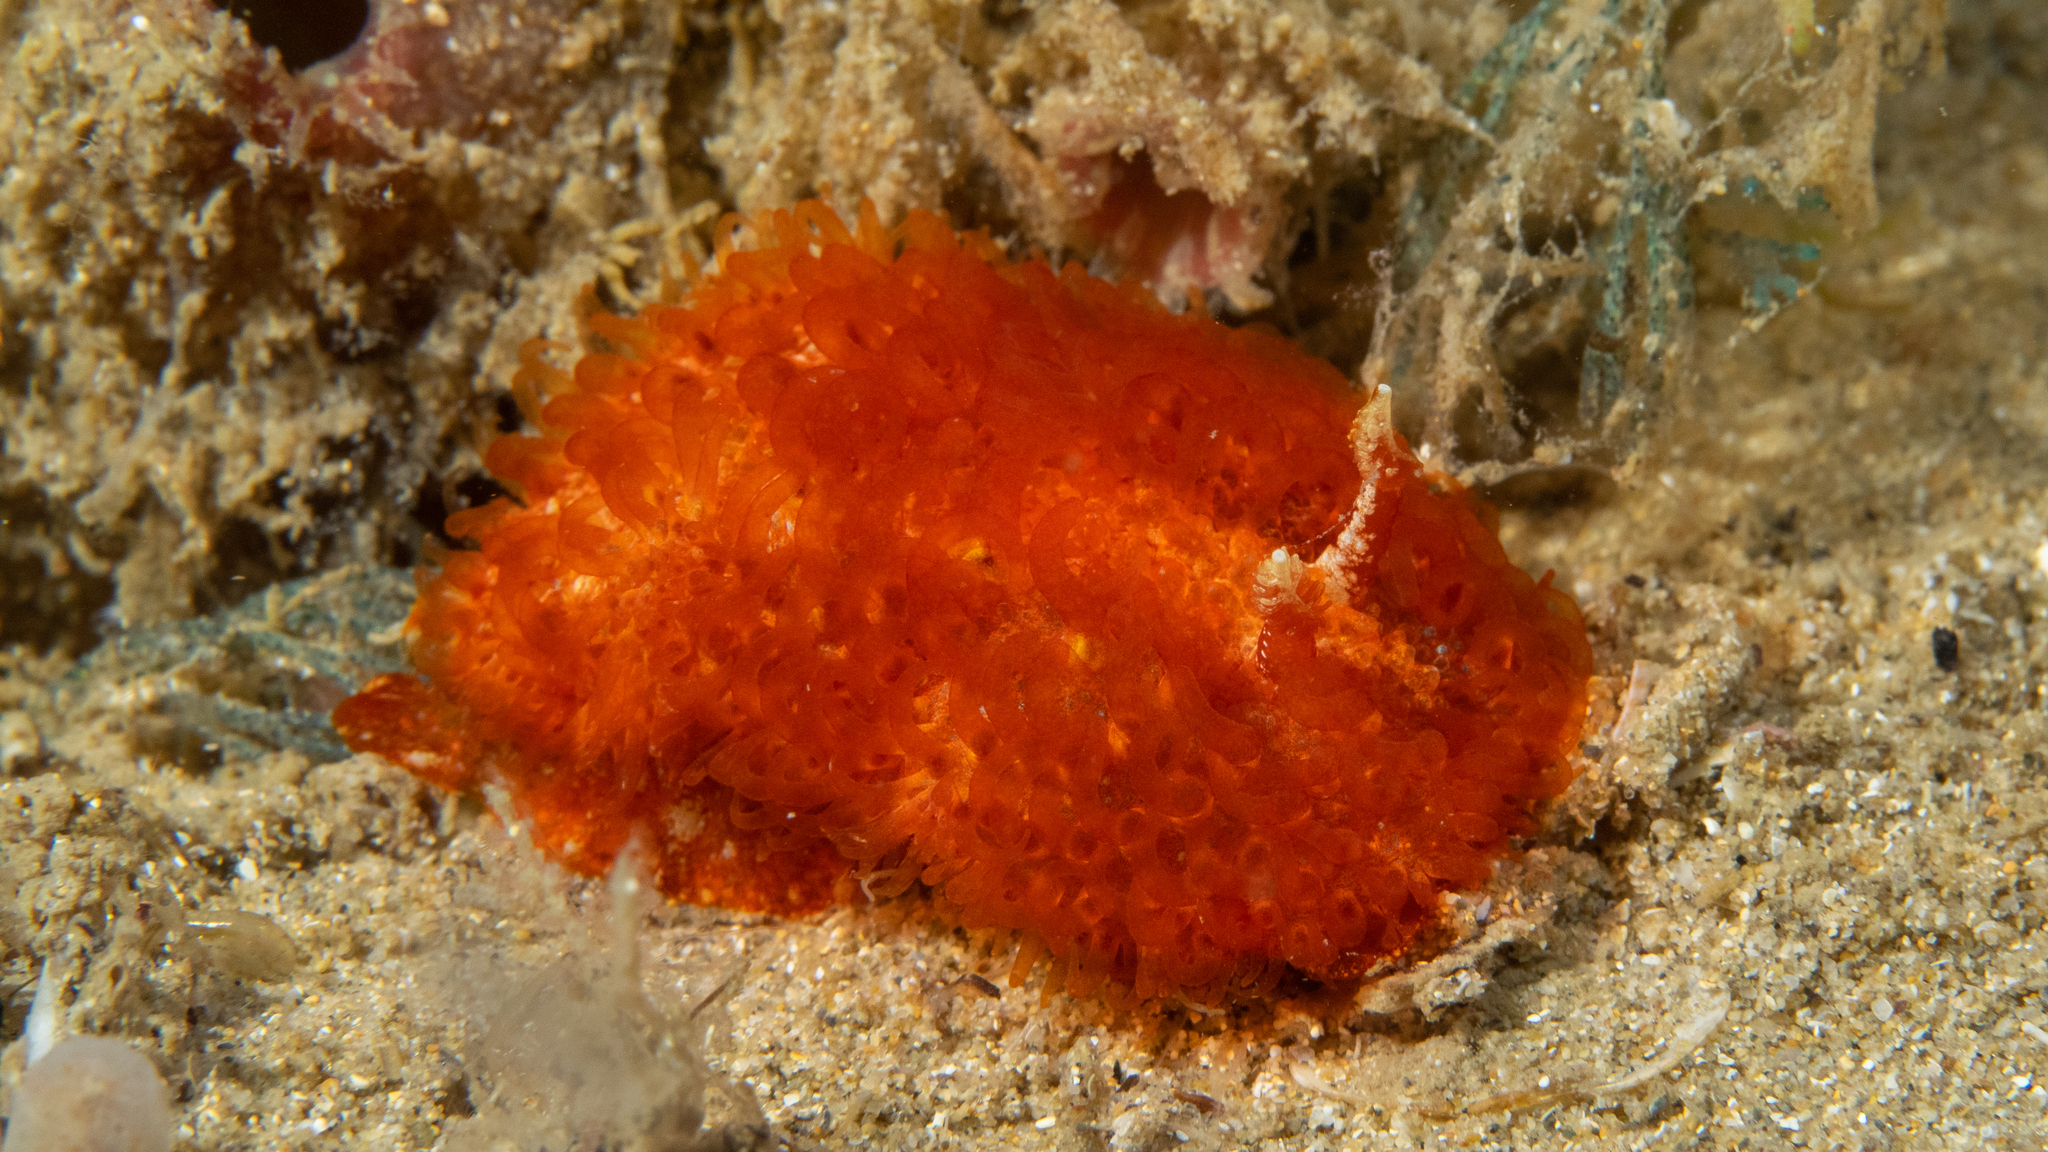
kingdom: Animalia
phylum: Mollusca
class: Gastropoda
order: Nudibranchia
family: Madrellidae
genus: Madrella
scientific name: Madrella ferruginosa
